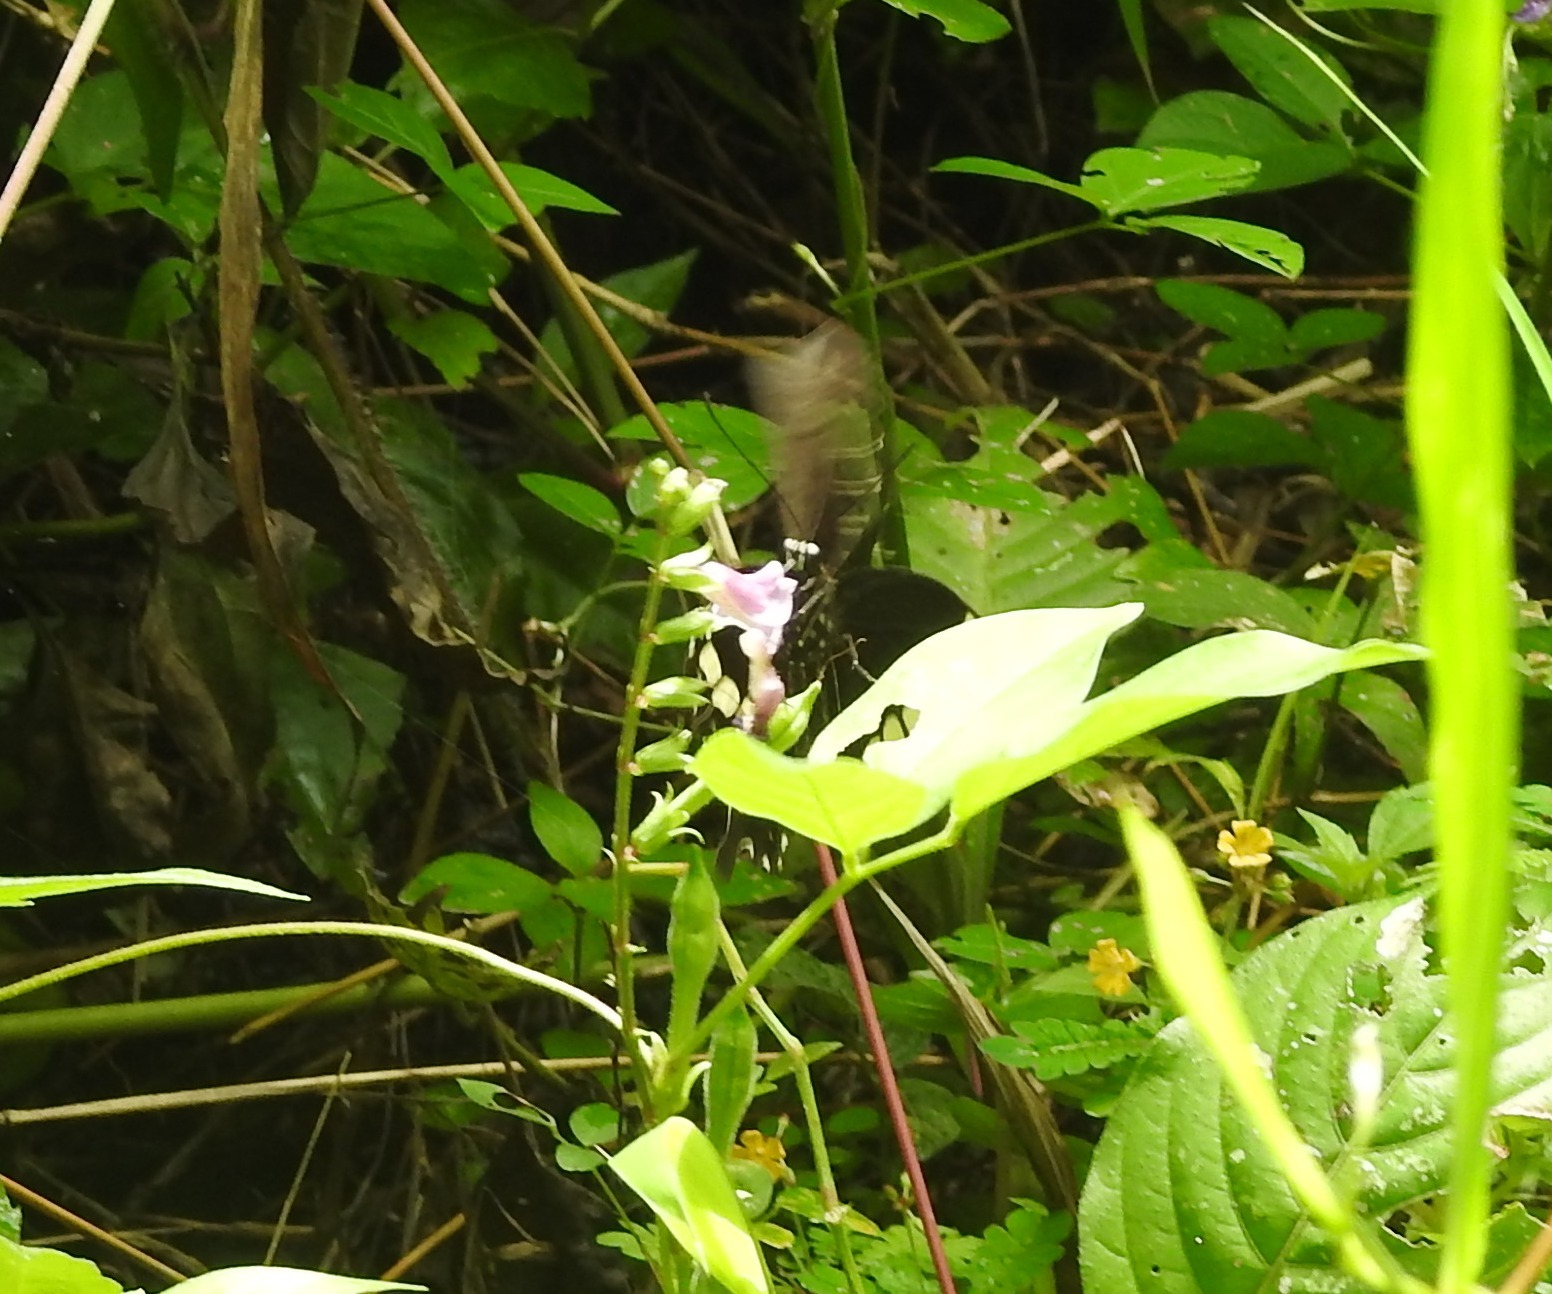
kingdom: Animalia
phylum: Arthropoda
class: Insecta
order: Lepidoptera
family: Papilionidae
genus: Papilio
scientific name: Papilio polytes
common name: Common mormon
